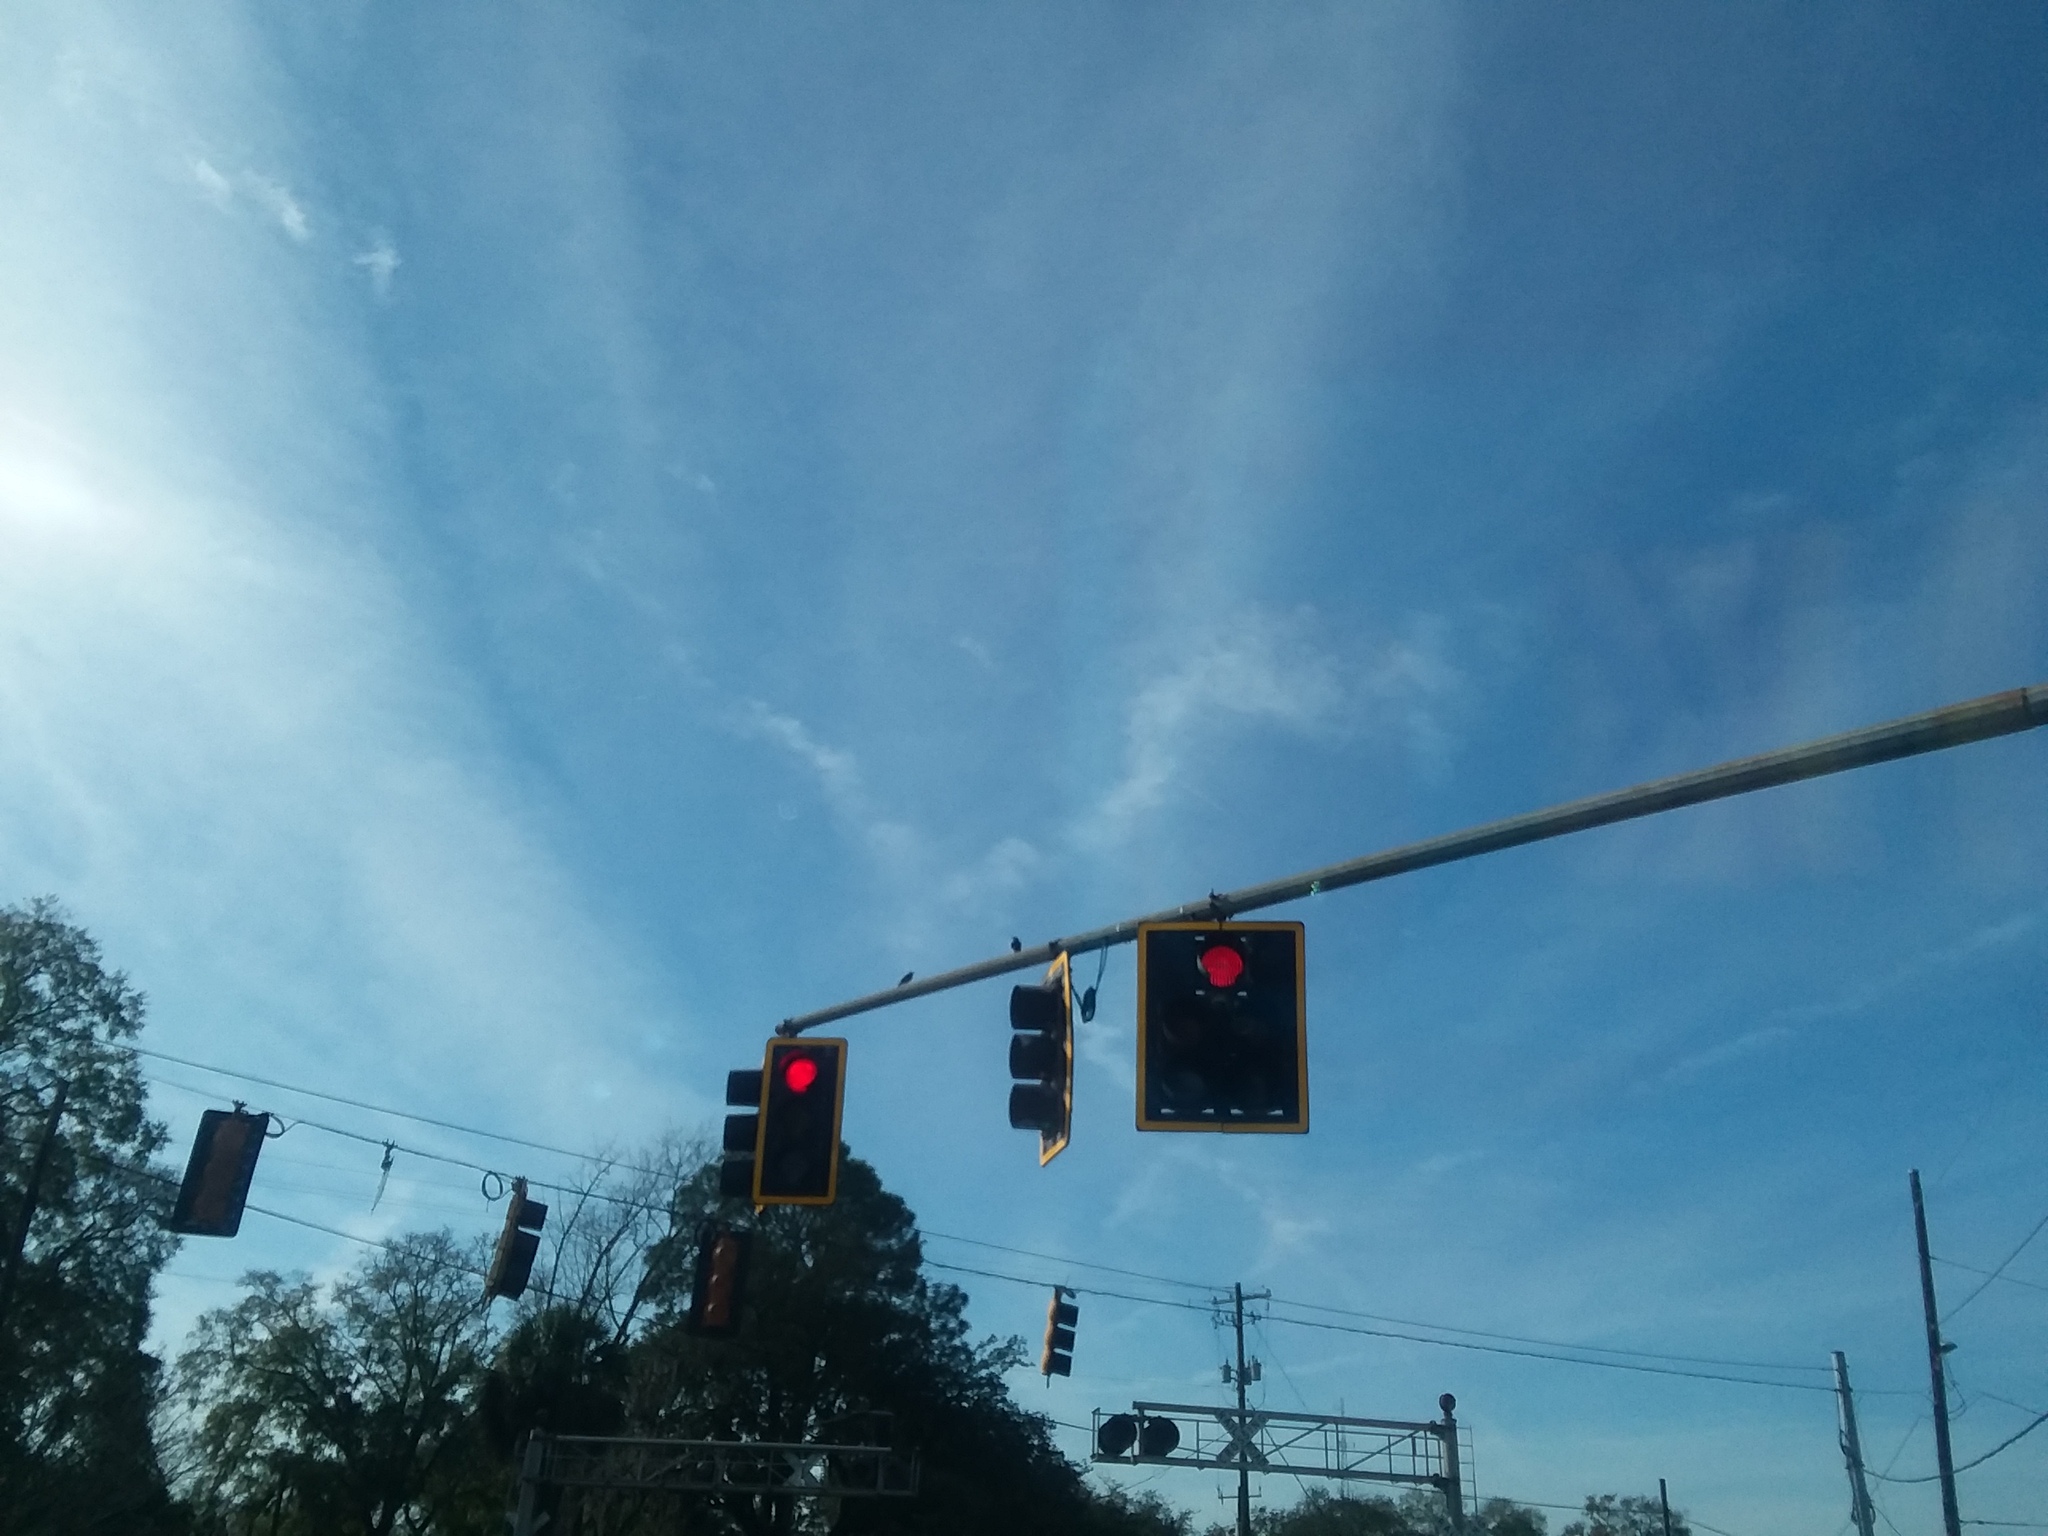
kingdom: Animalia
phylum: Chordata
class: Aves
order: Passeriformes
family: Sturnidae
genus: Sturnus
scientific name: Sturnus vulgaris
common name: Common starling
